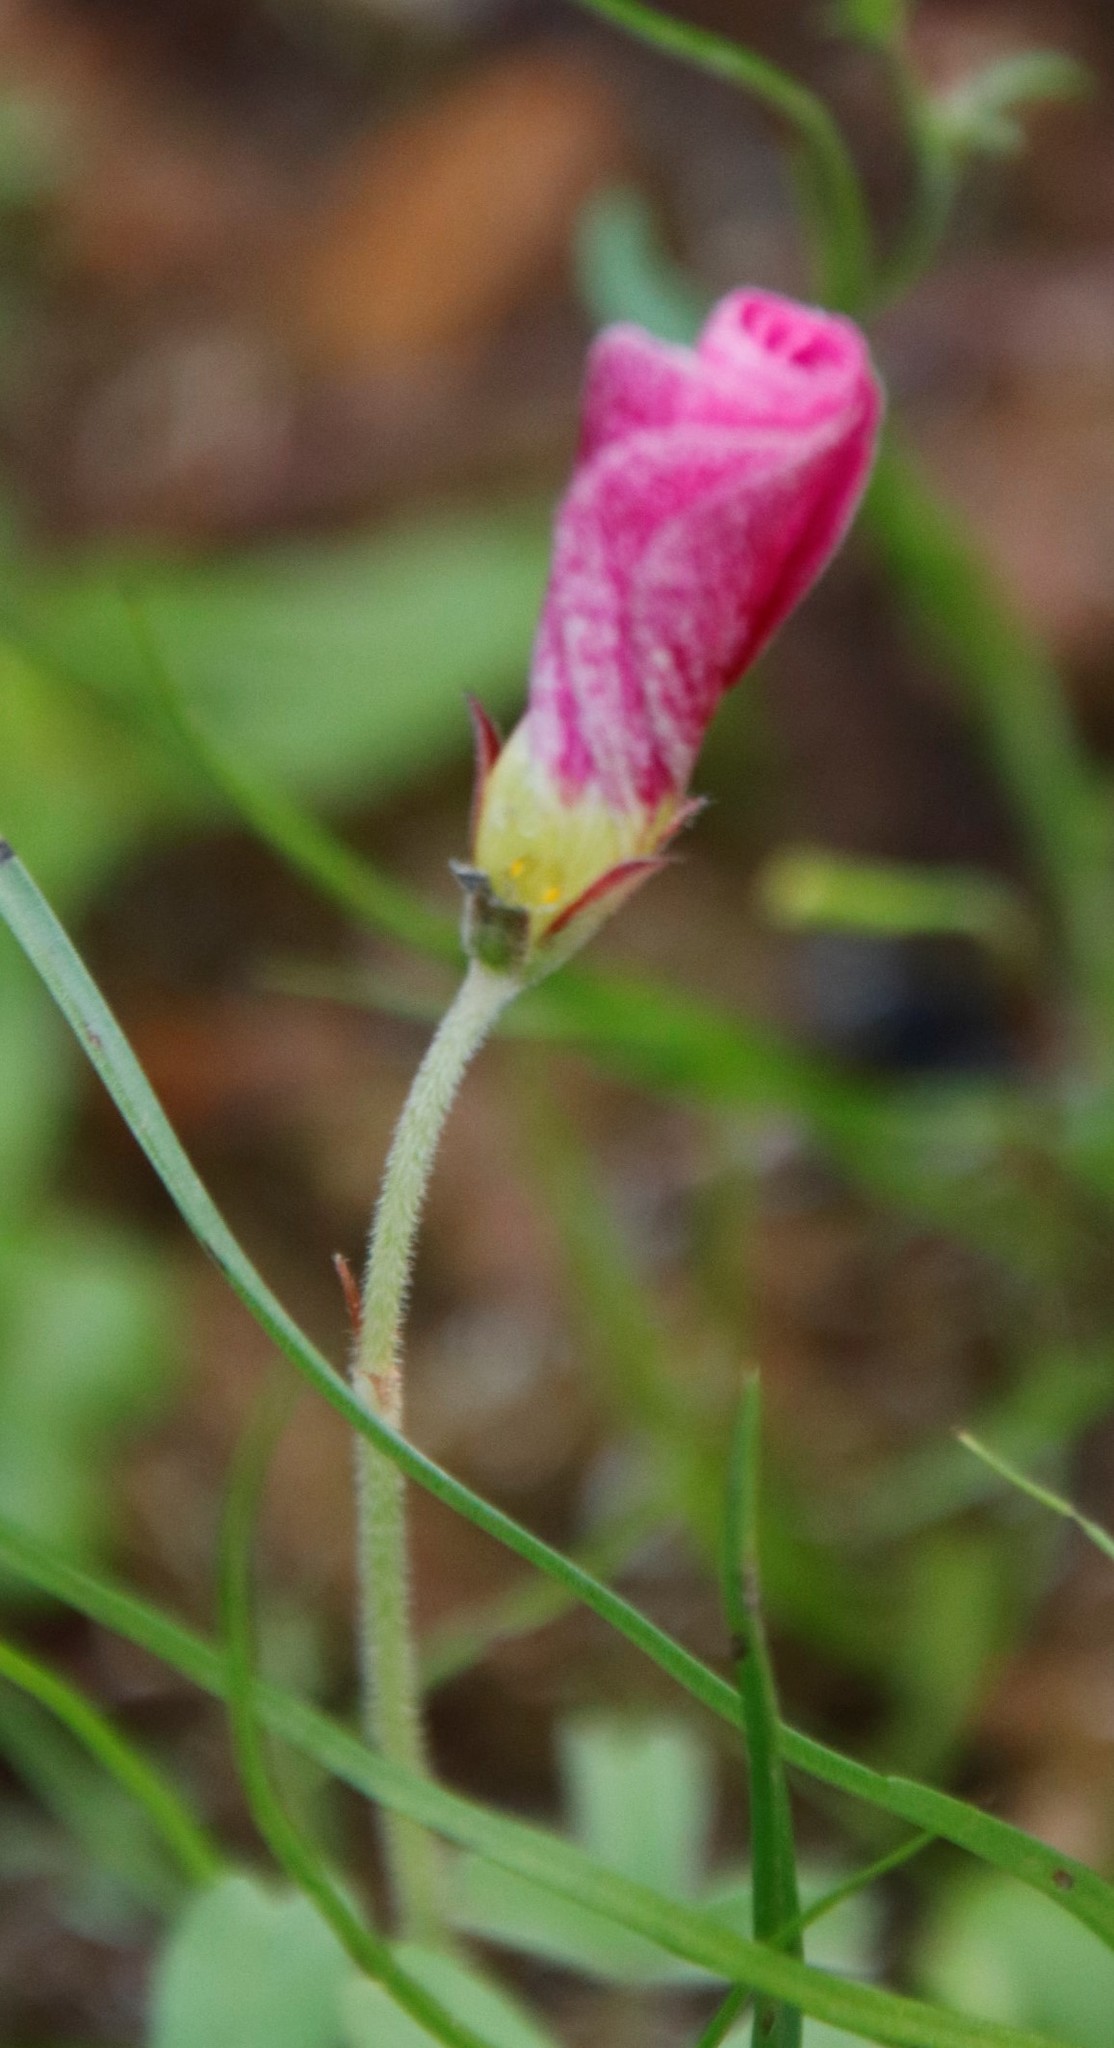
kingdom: Plantae
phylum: Tracheophyta
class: Magnoliopsida
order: Oxalidales
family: Oxalidaceae
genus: Oxalis
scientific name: Oxalis obtusa
